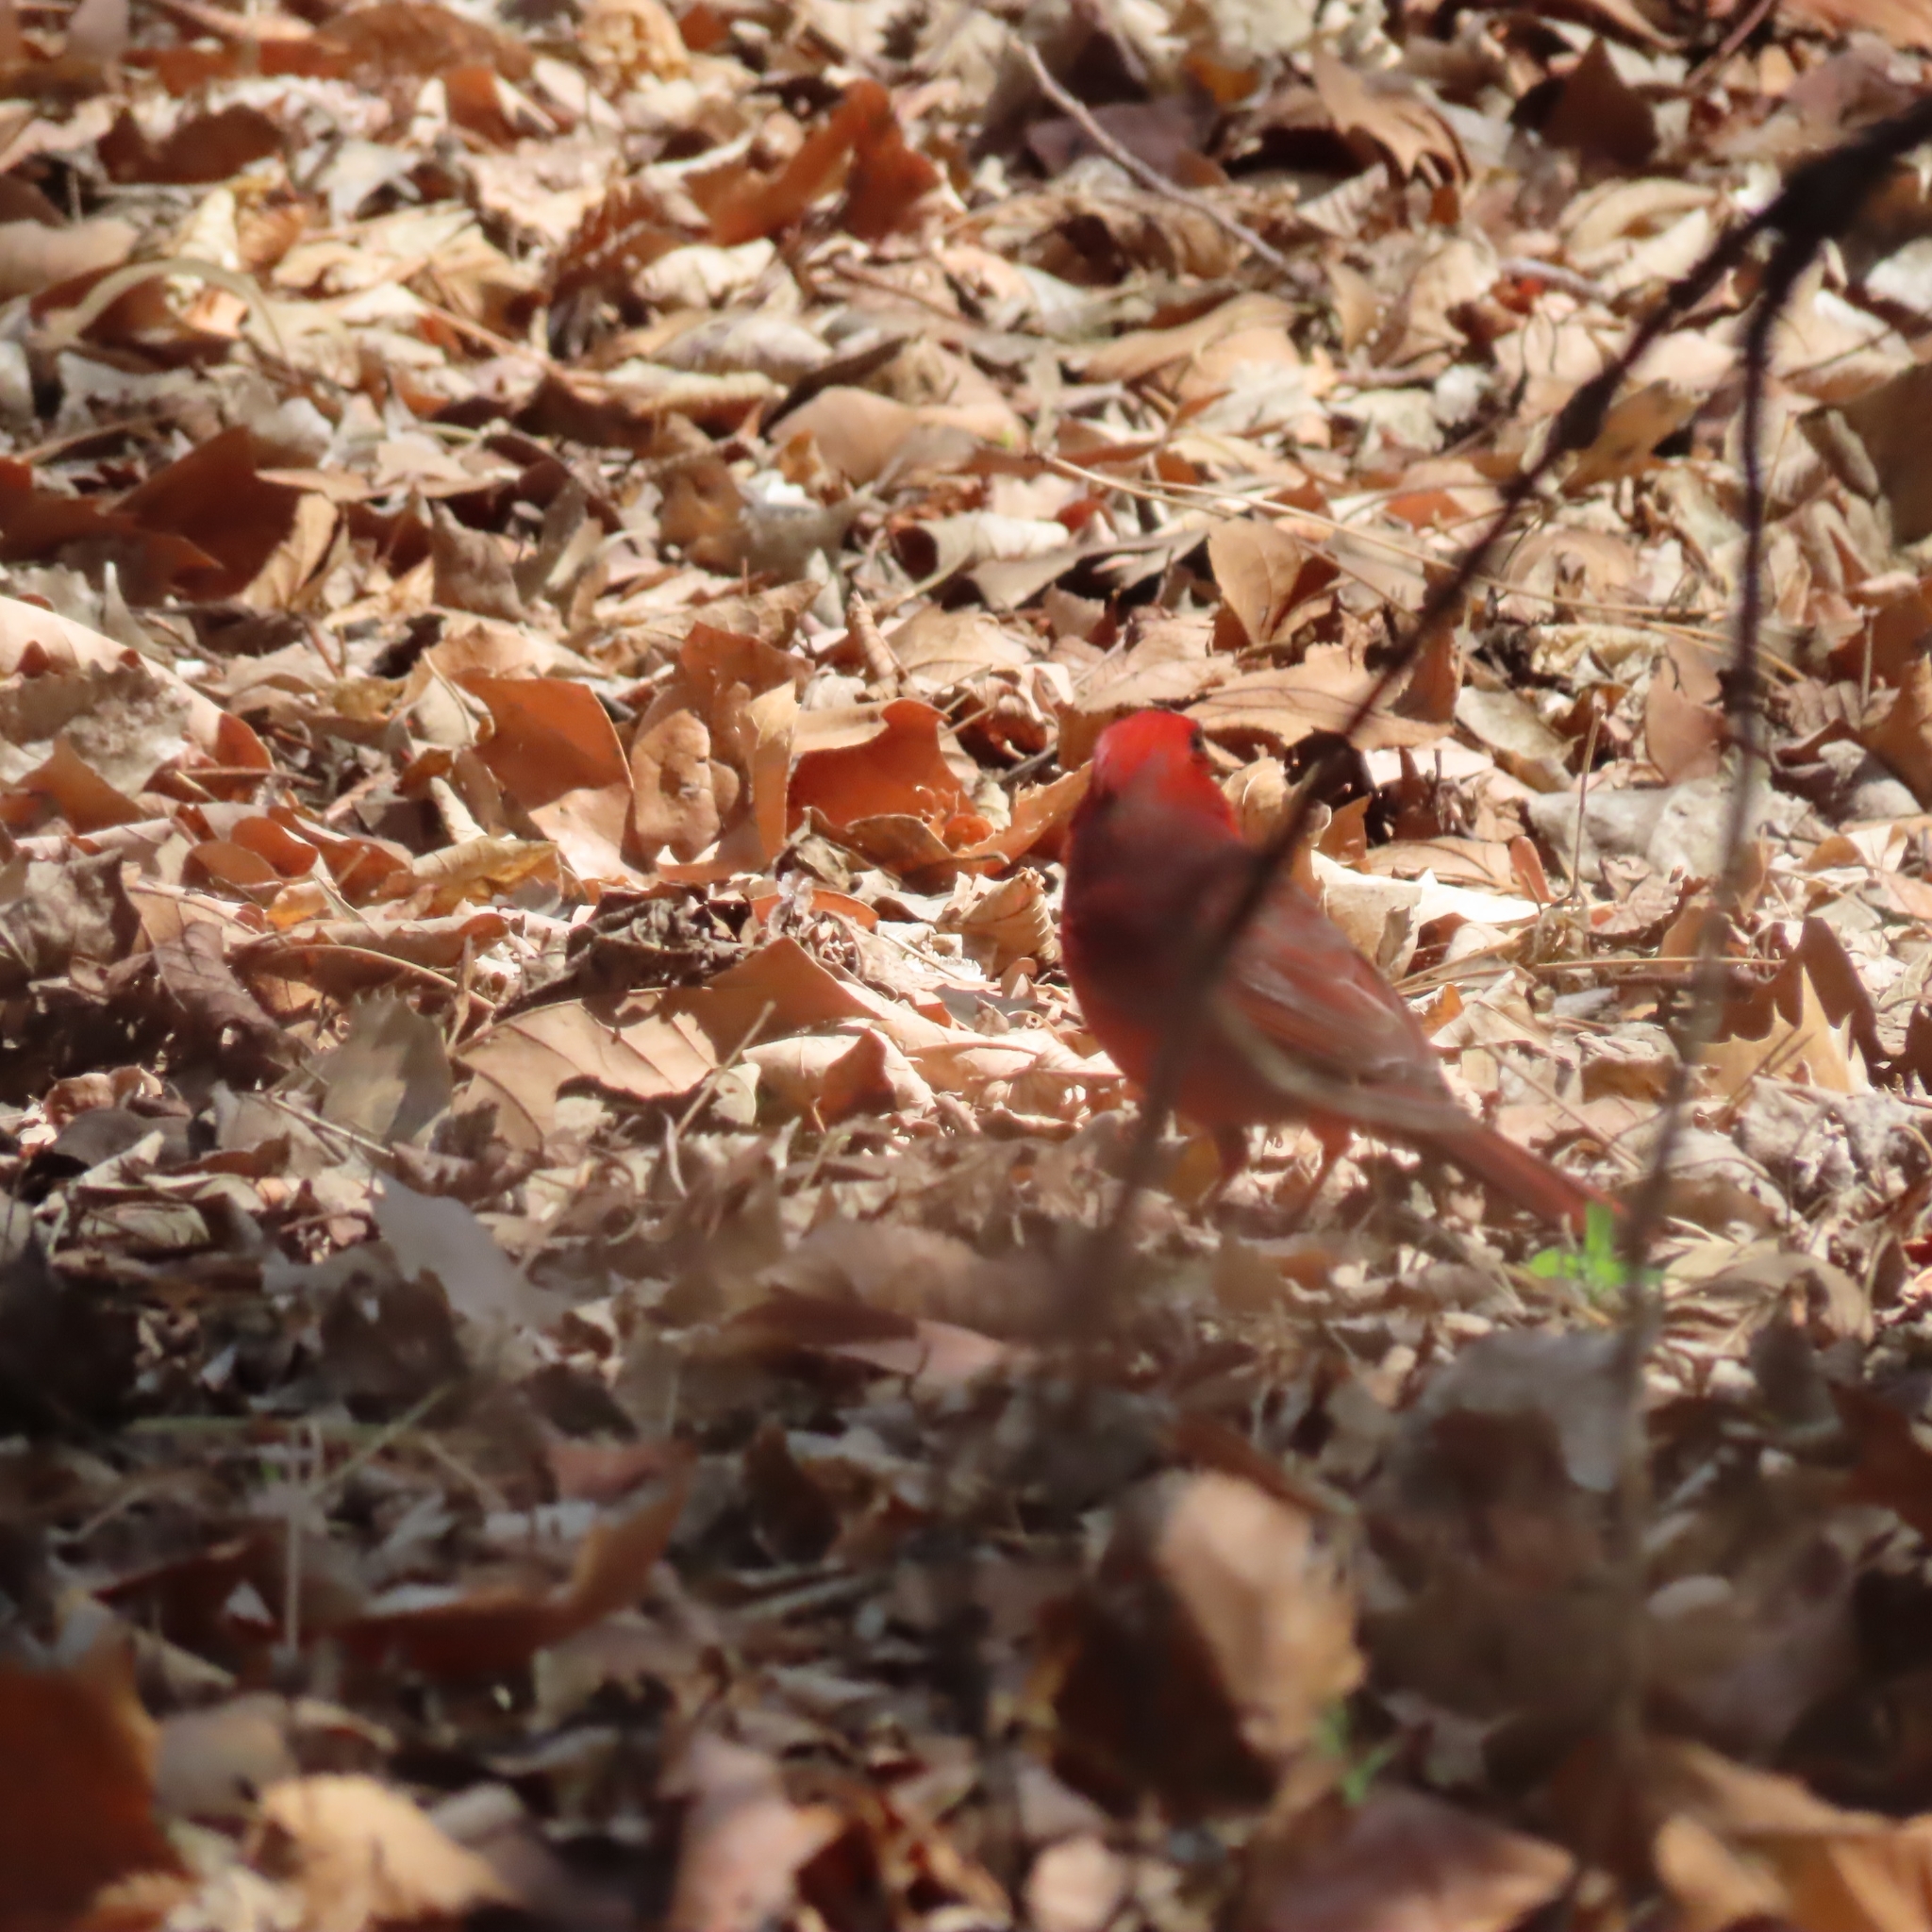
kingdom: Animalia
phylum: Chordata
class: Aves
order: Passeriformes
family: Cardinalidae
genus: Cardinalis
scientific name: Cardinalis cardinalis
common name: Northern cardinal
